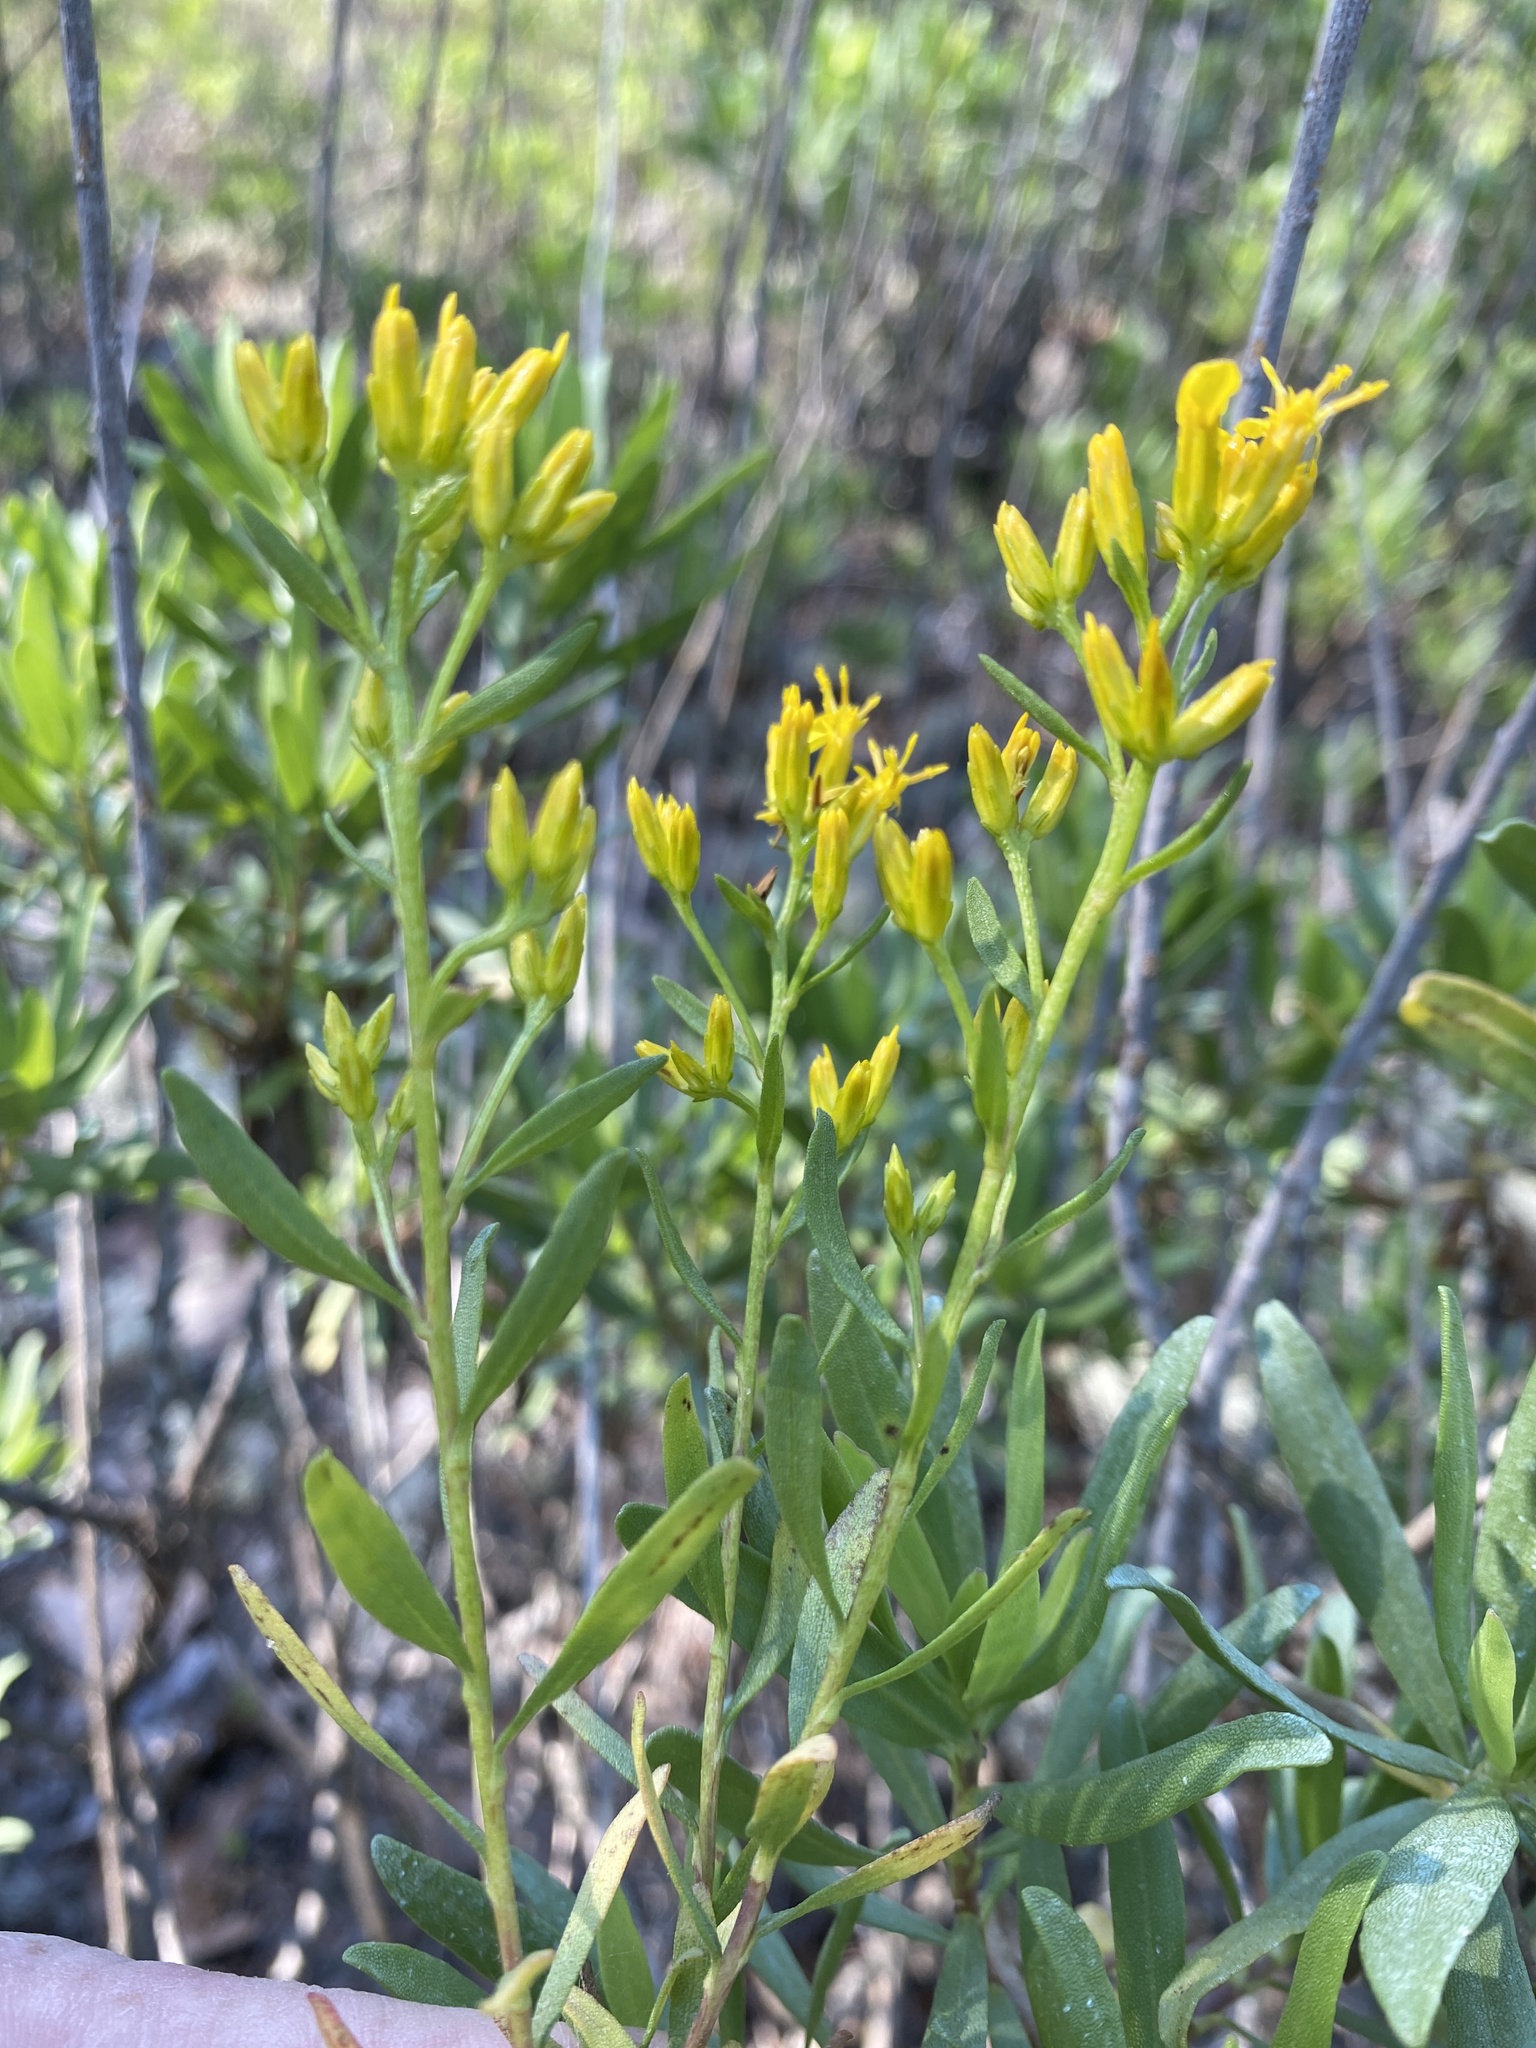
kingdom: Plantae
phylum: Tracheophyta
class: Magnoliopsida
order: Asterales
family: Asteraceae
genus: Chrysoma
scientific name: Chrysoma pauciflosculosa
